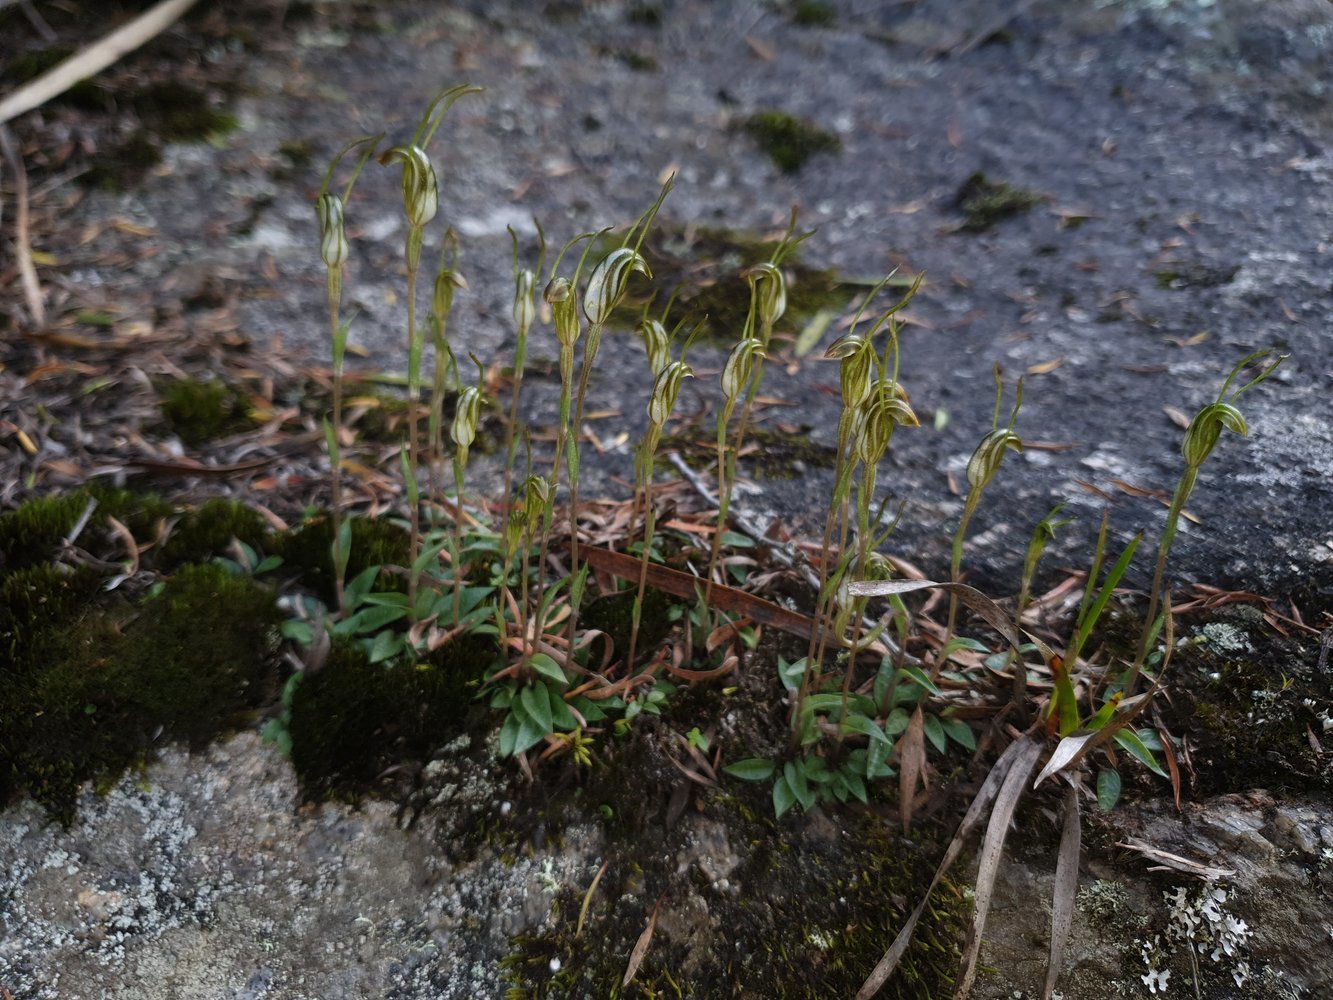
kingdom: Plantae
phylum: Tracheophyta
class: Liliopsida
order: Asparagales
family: Orchidaceae
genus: Pterostylis
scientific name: Pterostylis timothyi
